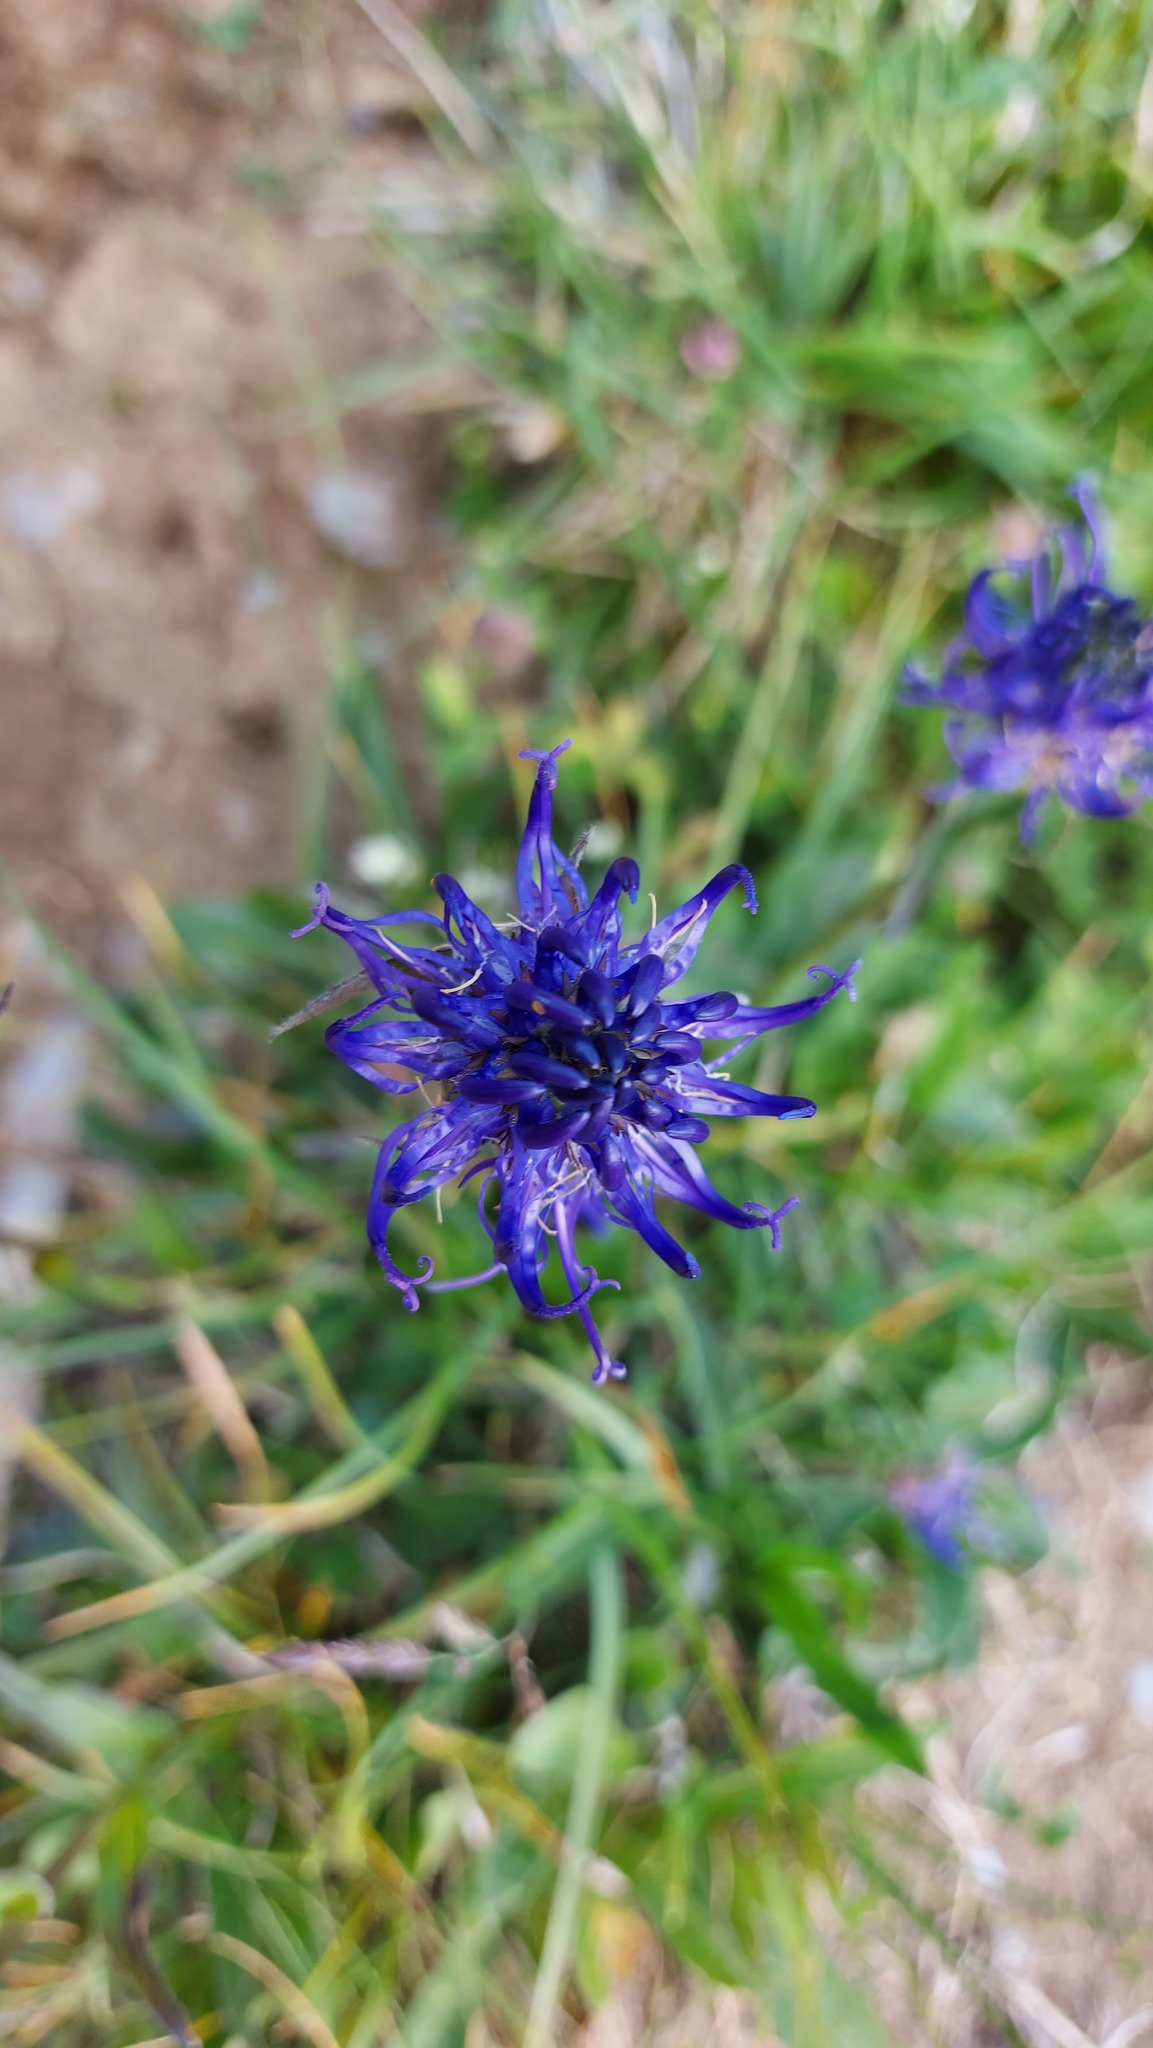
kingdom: Plantae
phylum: Tracheophyta
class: Magnoliopsida
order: Asterales
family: Campanulaceae
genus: Phyteuma
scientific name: Phyteuma orbiculare
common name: Round-headed rampion
